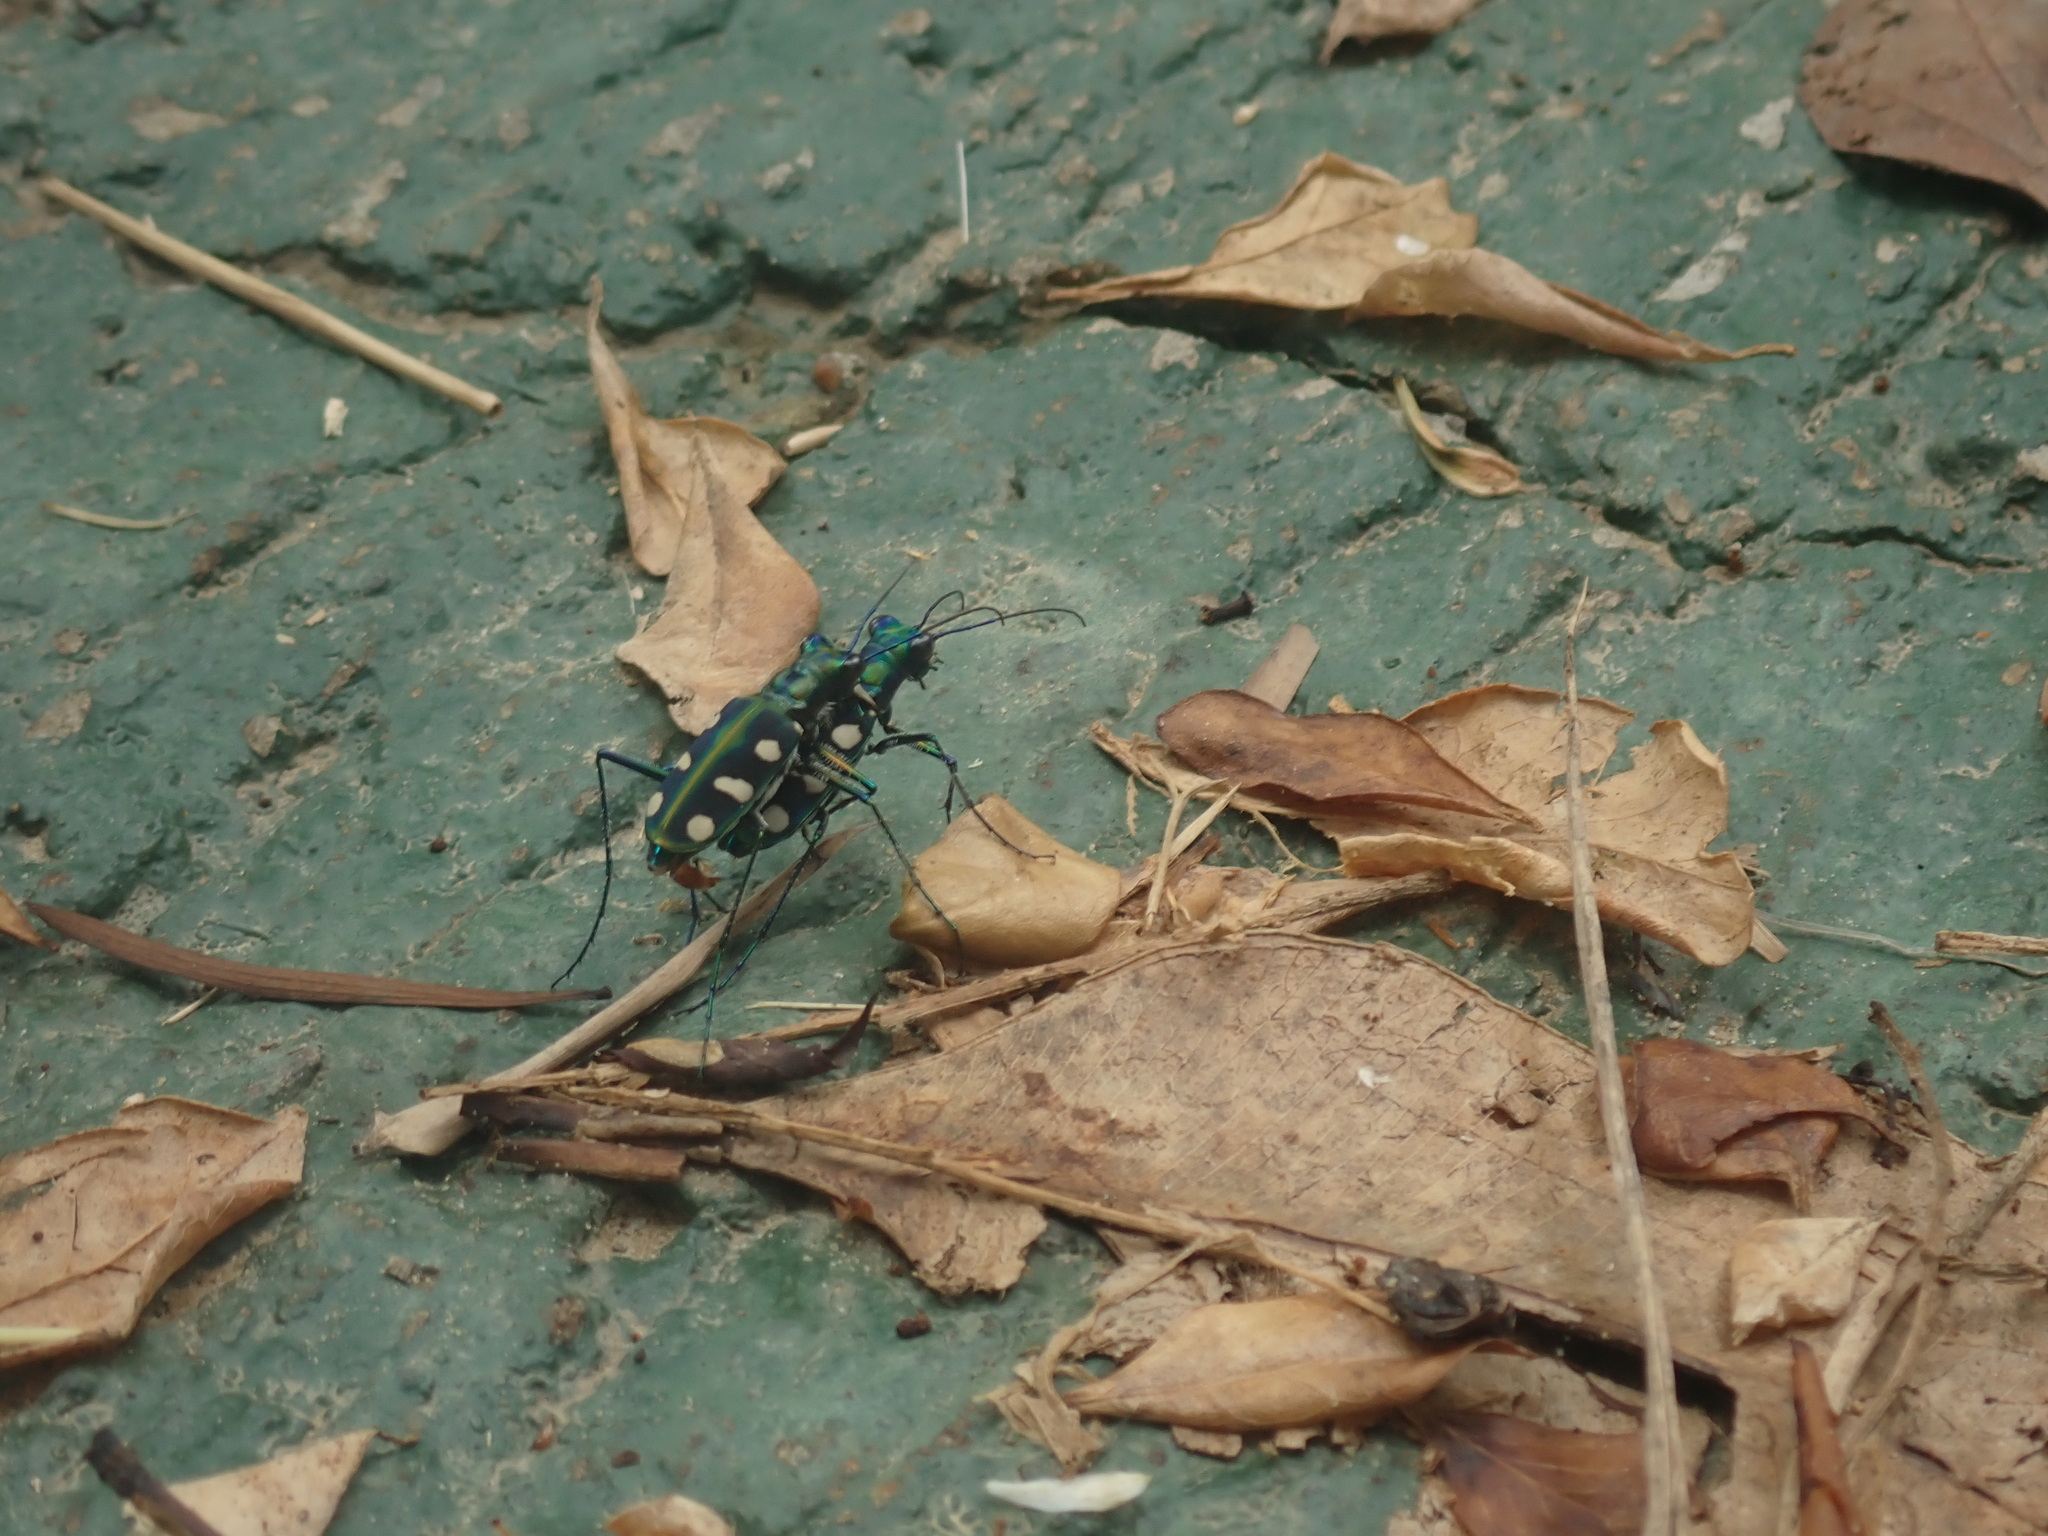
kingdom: Animalia
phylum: Arthropoda
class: Insecta
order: Coleoptera
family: Carabidae
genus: Cicindela
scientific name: Cicindela batesi
